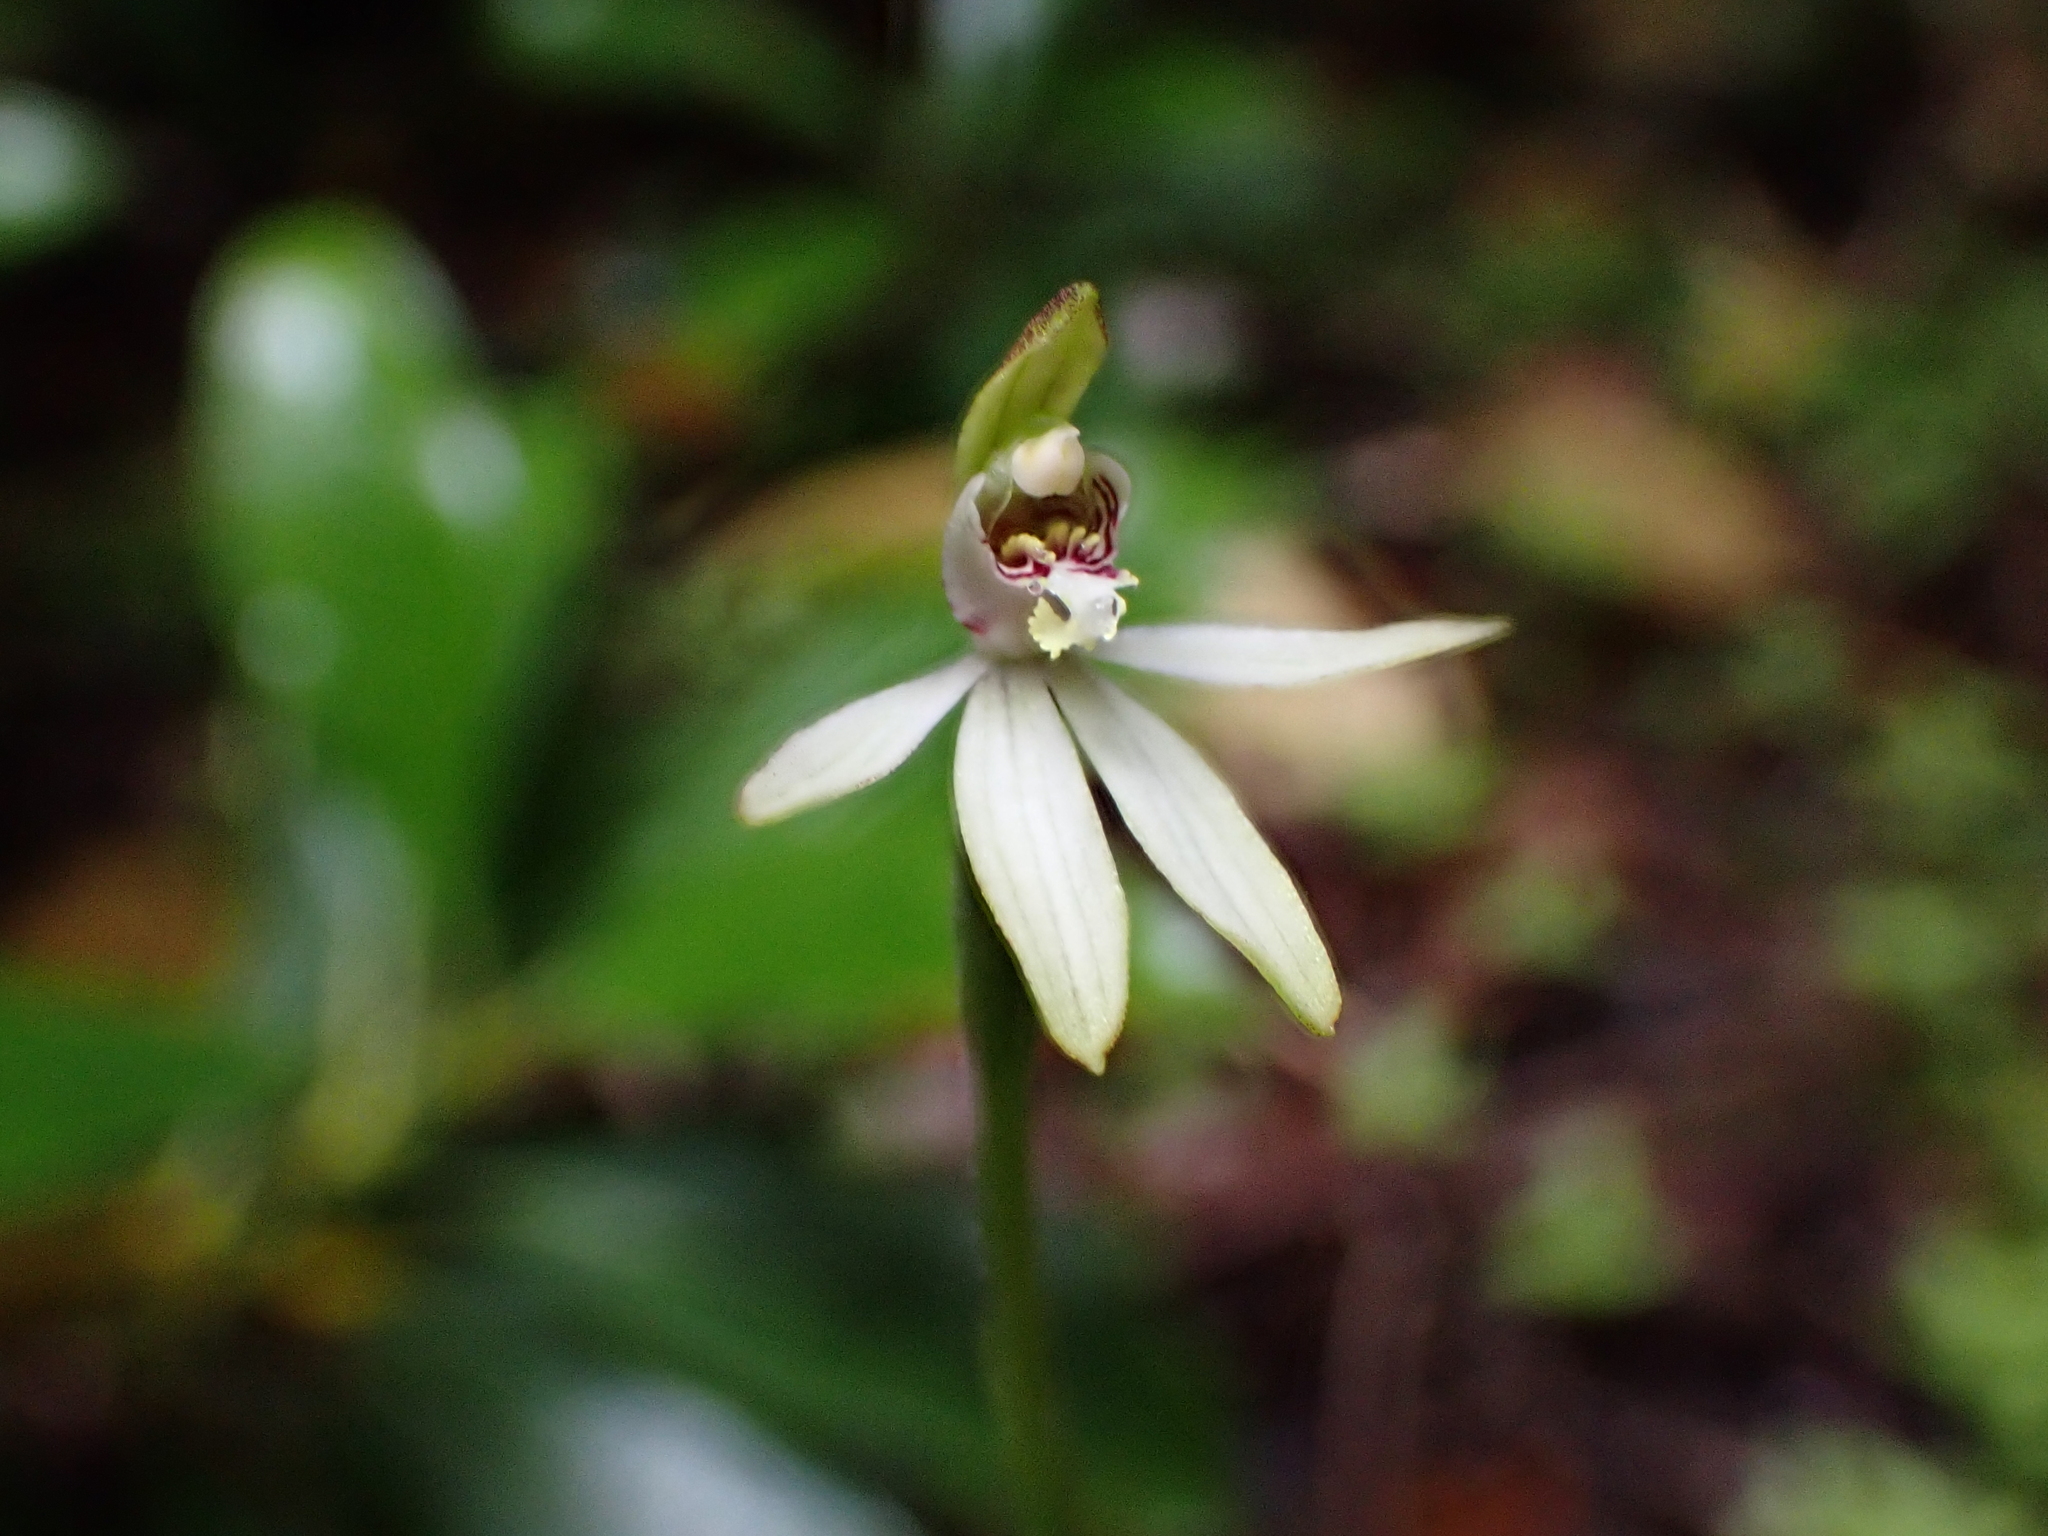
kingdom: Plantae
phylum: Tracheophyta
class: Liliopsida
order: Asparagales
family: Orchidaceae
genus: Caladenia
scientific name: Caladenia chlorostyla
